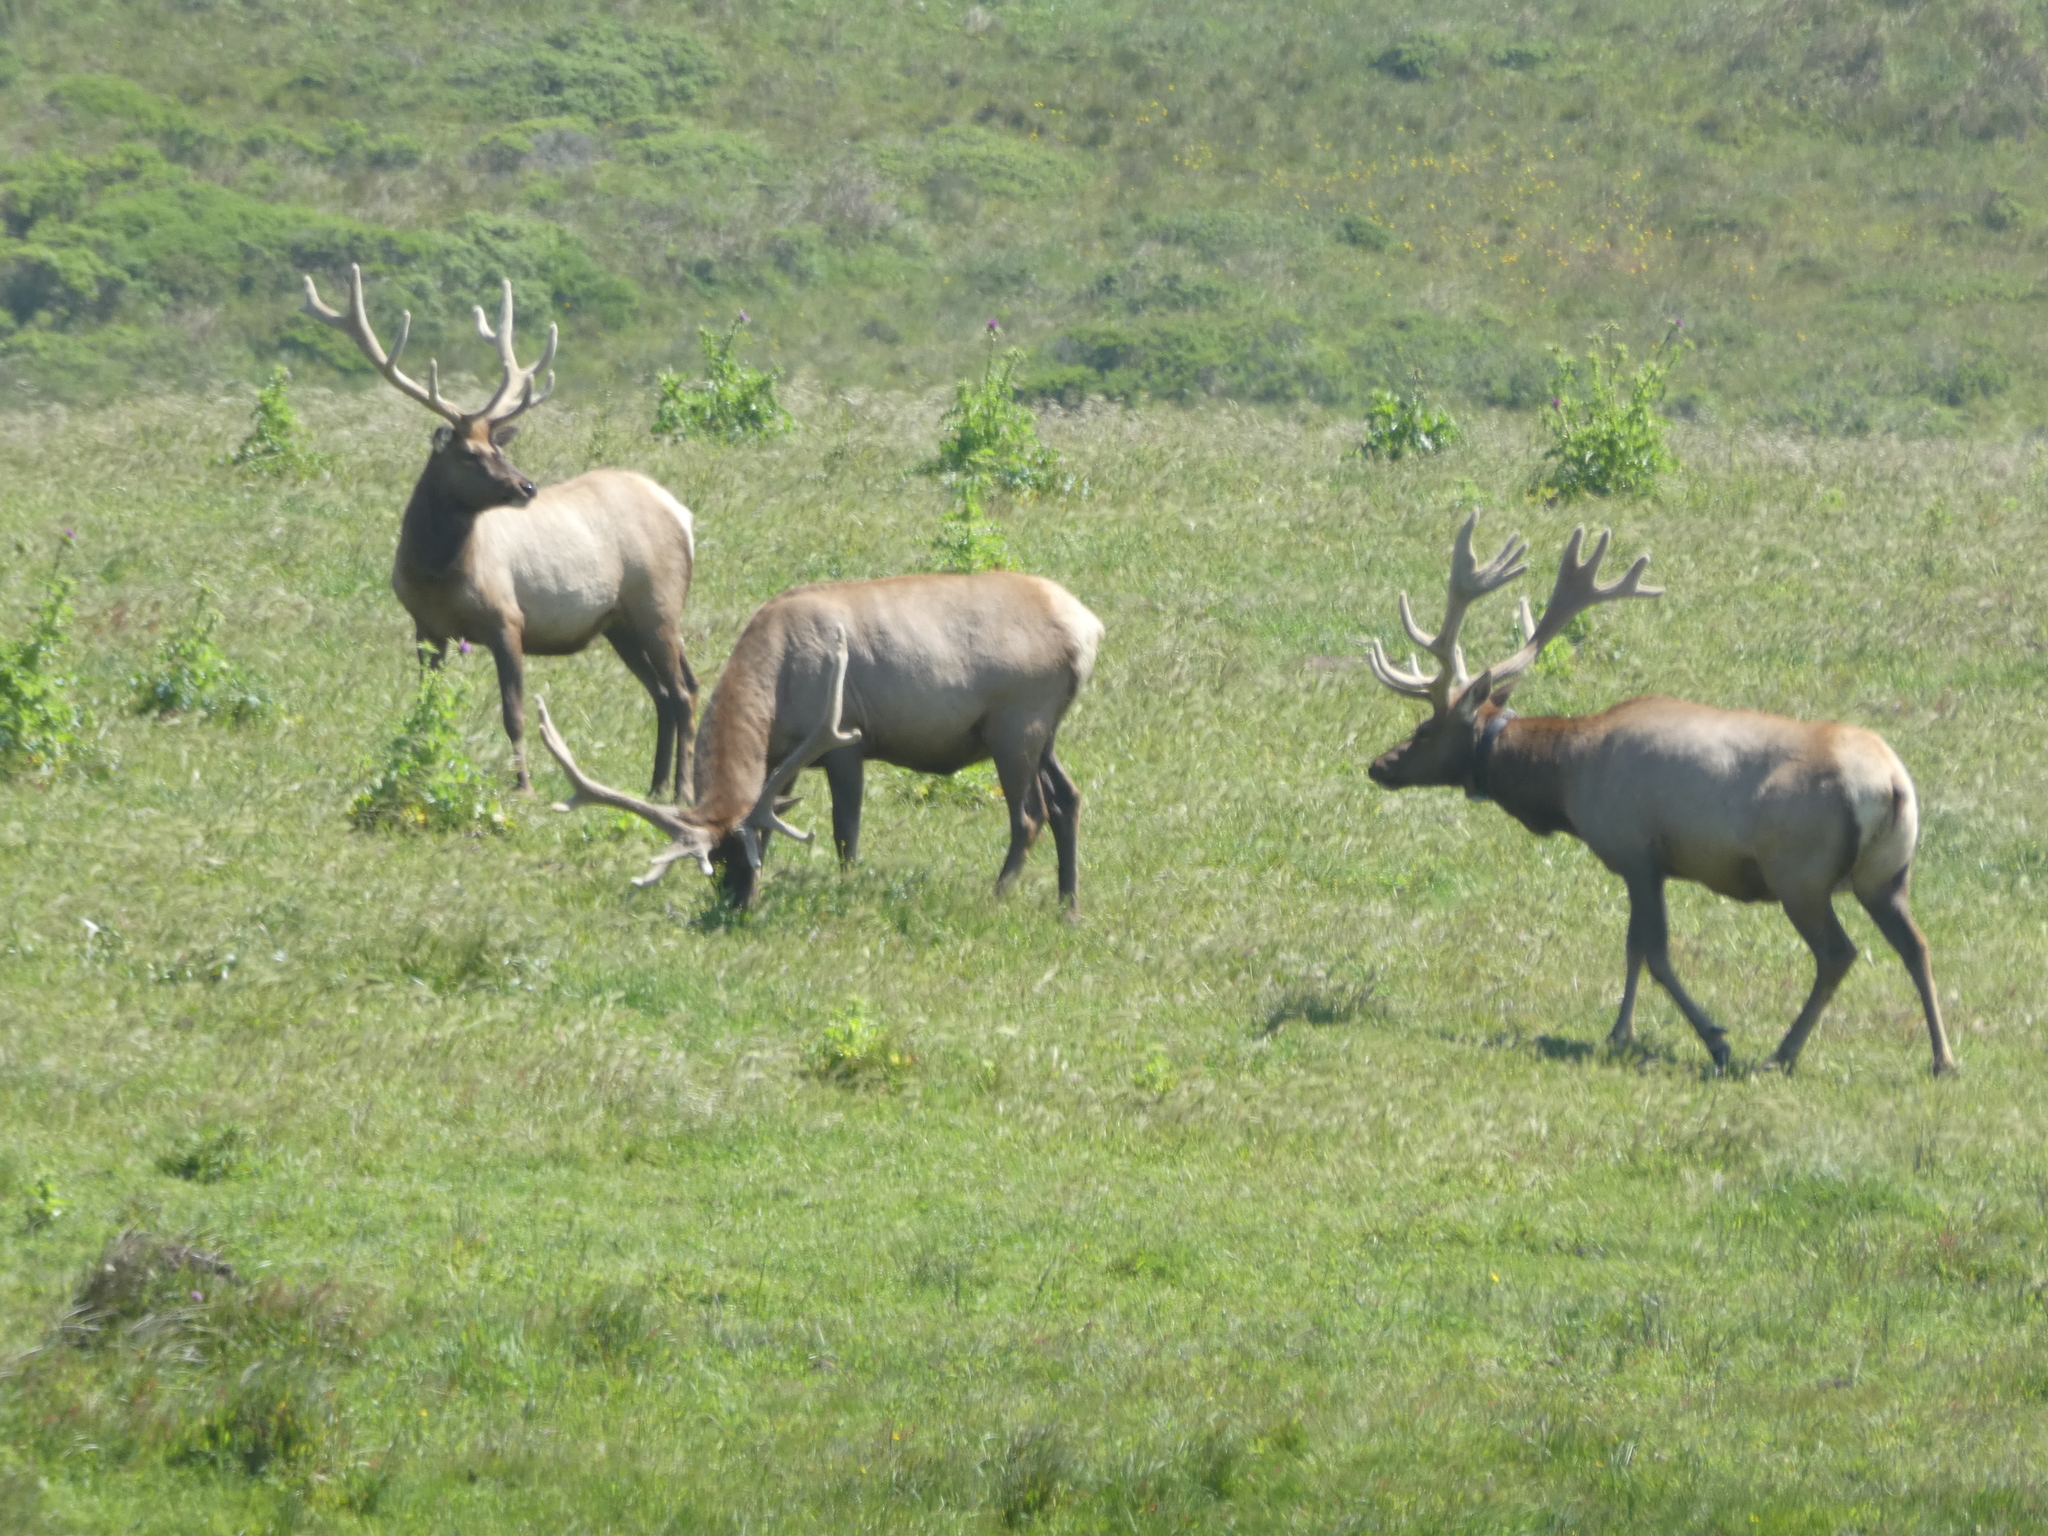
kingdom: Animalia
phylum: Chordata
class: Mammalia
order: Artiodactyla
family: Cervidae
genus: Cervus
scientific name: Cervus elaphus
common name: Red deer
